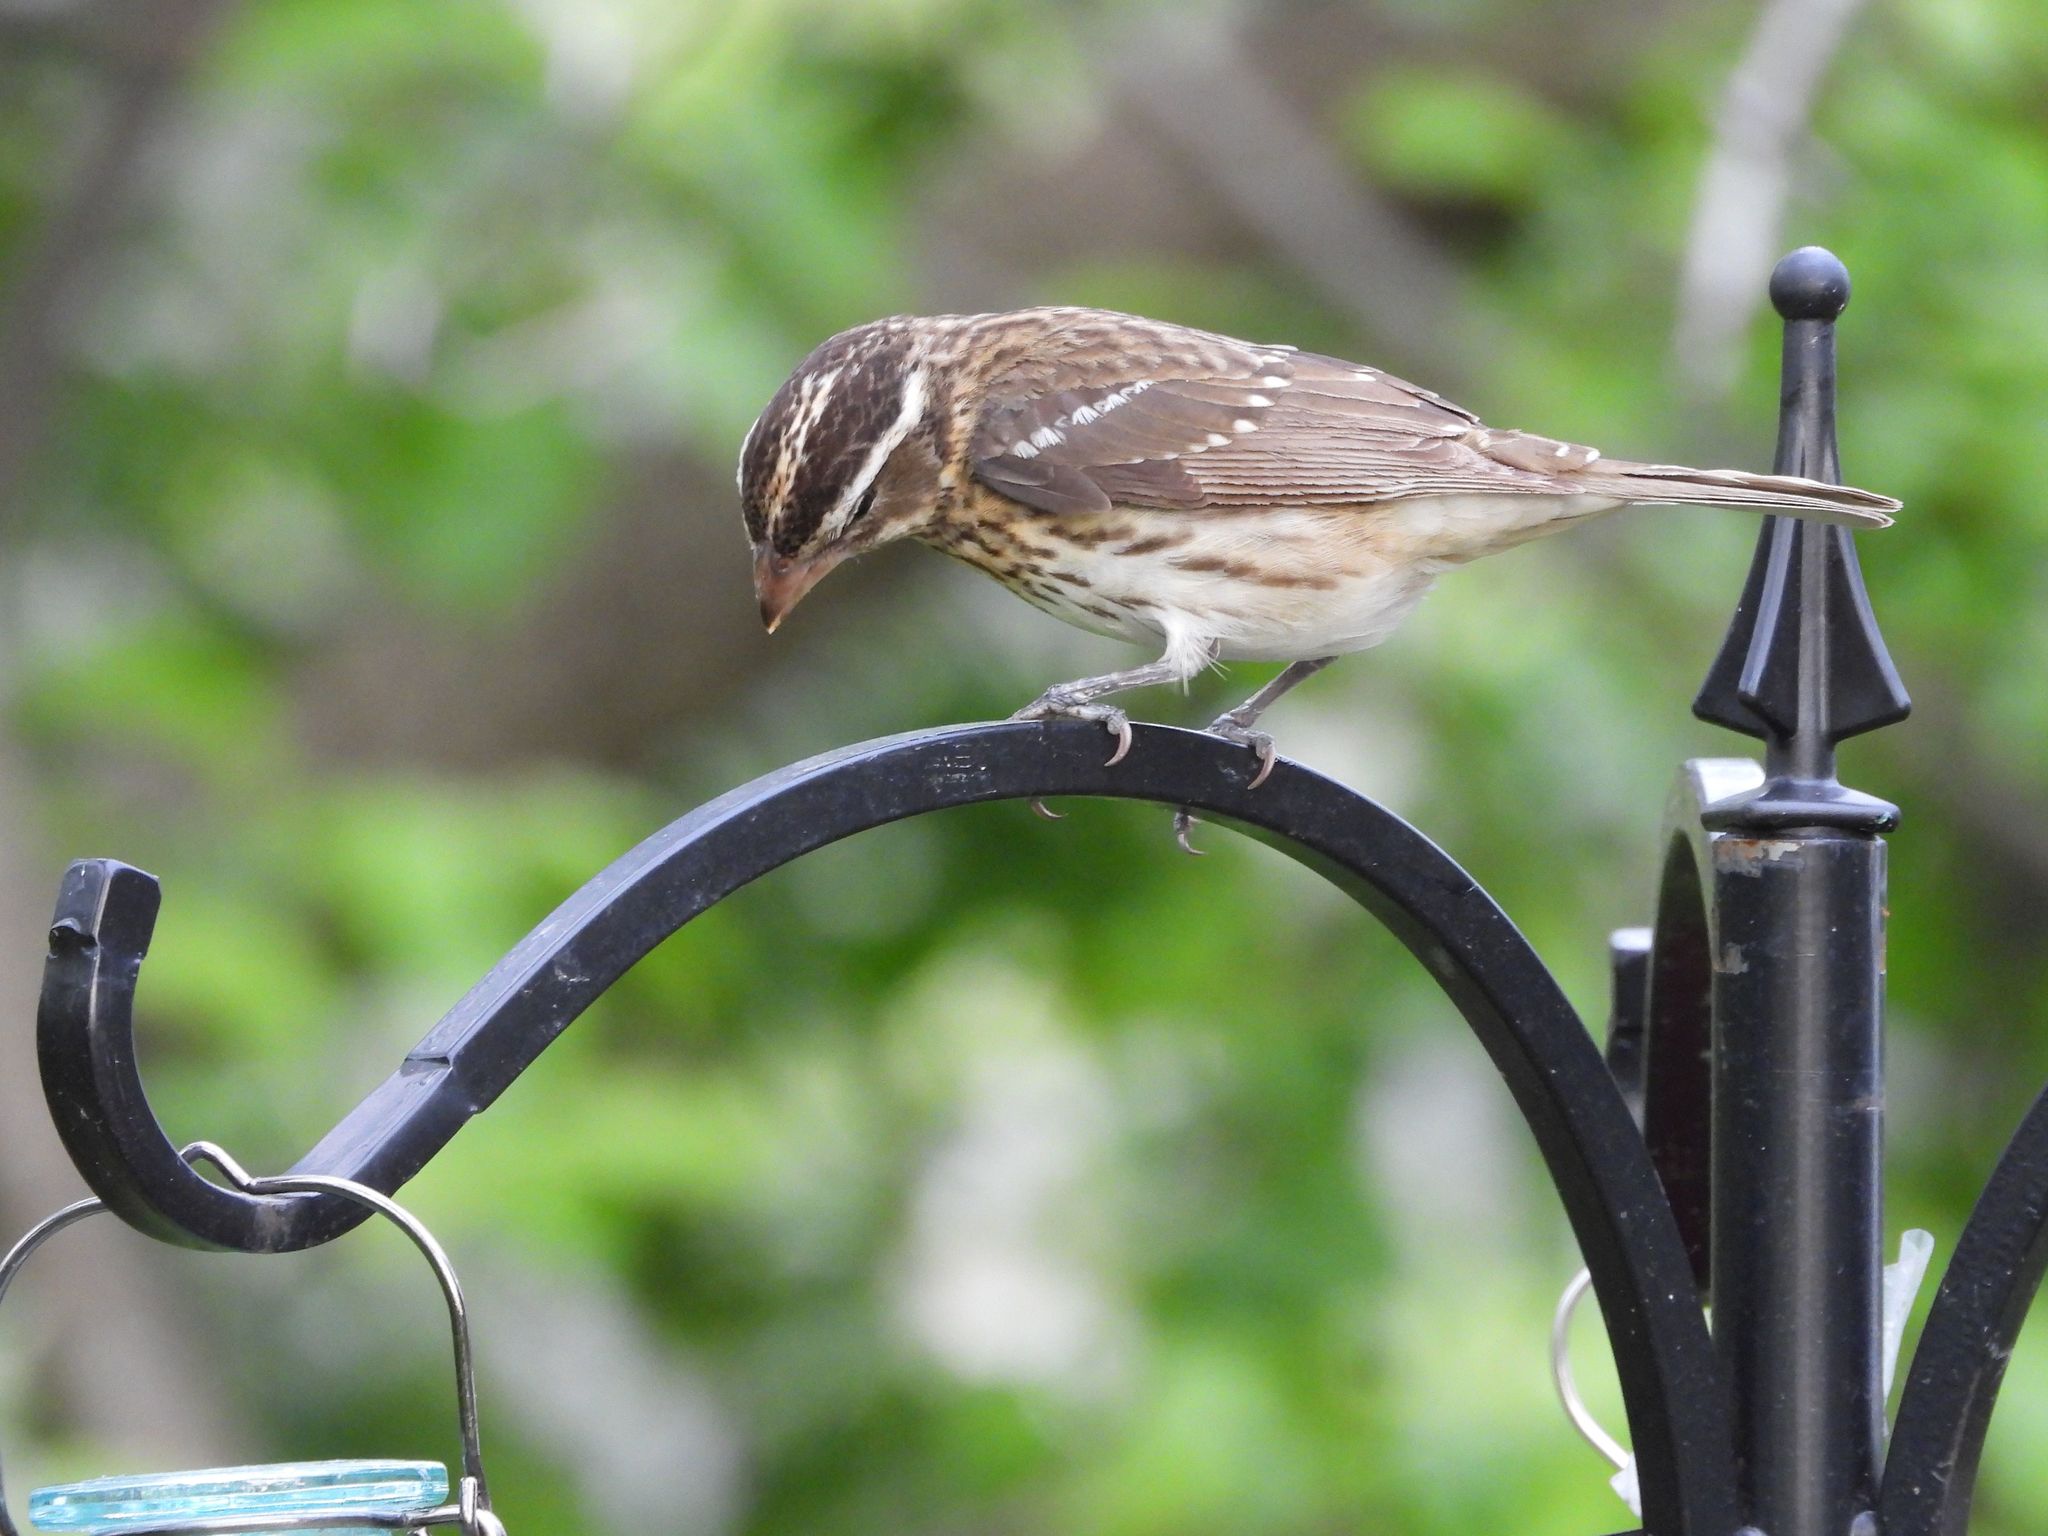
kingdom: Animalia
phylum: Chordata
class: Aves
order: Passeriformes
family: Cardinalidae
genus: Pheucticus
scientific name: Pheucticus ludovicianus
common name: Rose-breasted grosbeak
